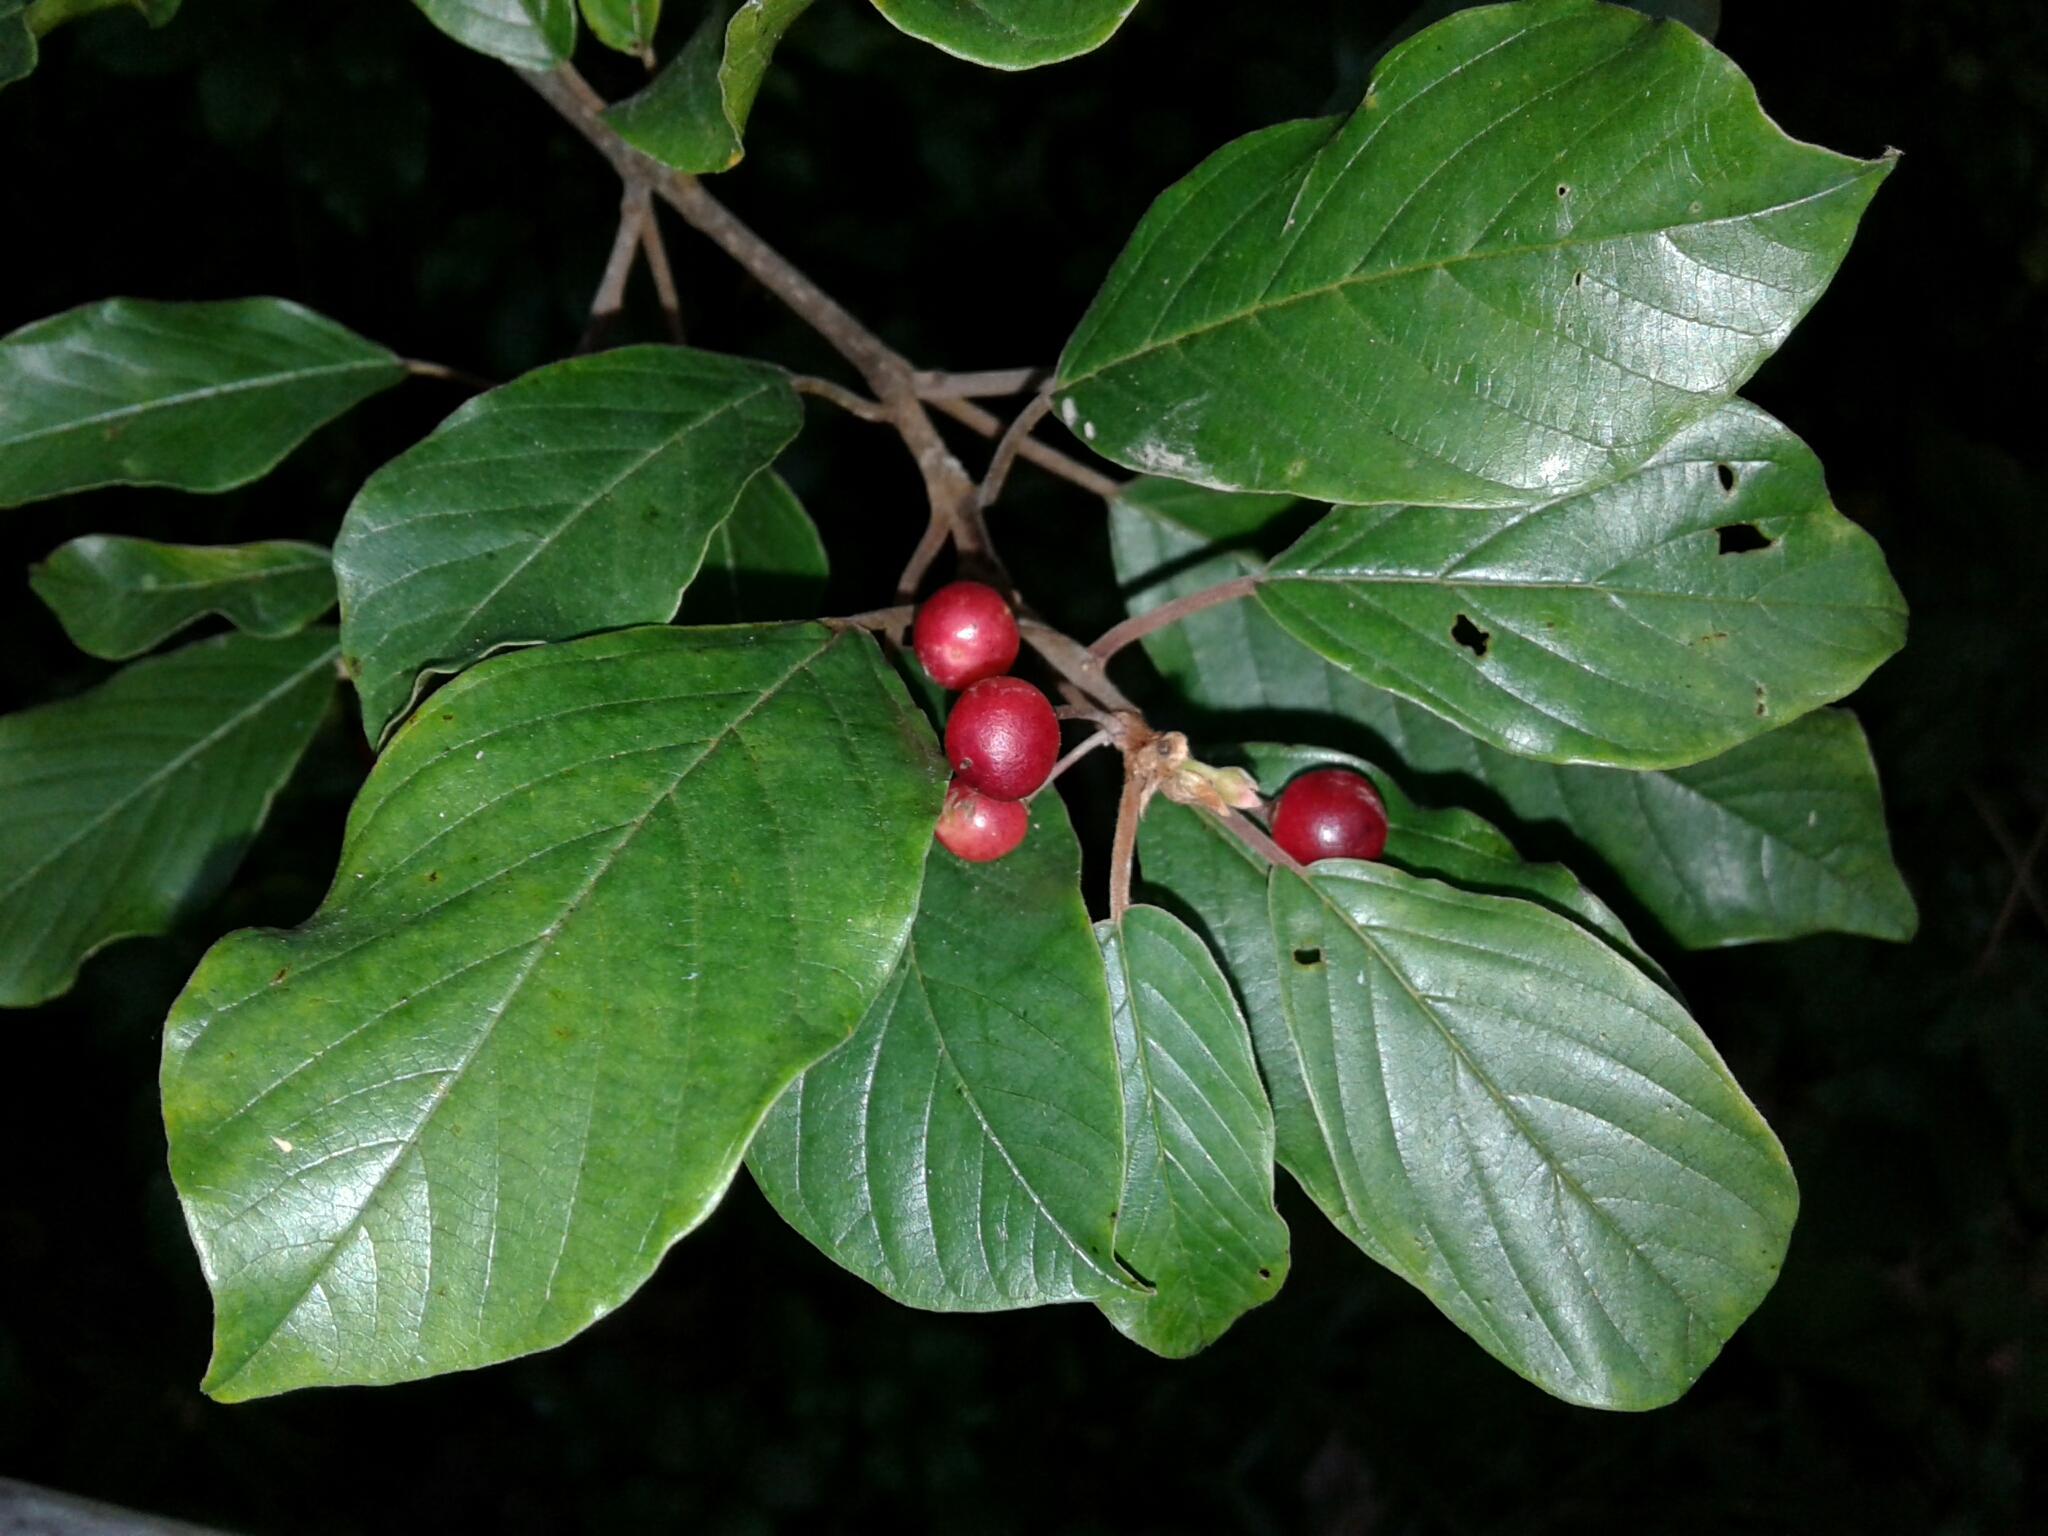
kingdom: Plantae
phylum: Tracheophyta
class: Magnoliopsida
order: Rosales
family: Rhamnaceae
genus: Frangula
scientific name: Frangula alnus
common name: Alder buckthorn
